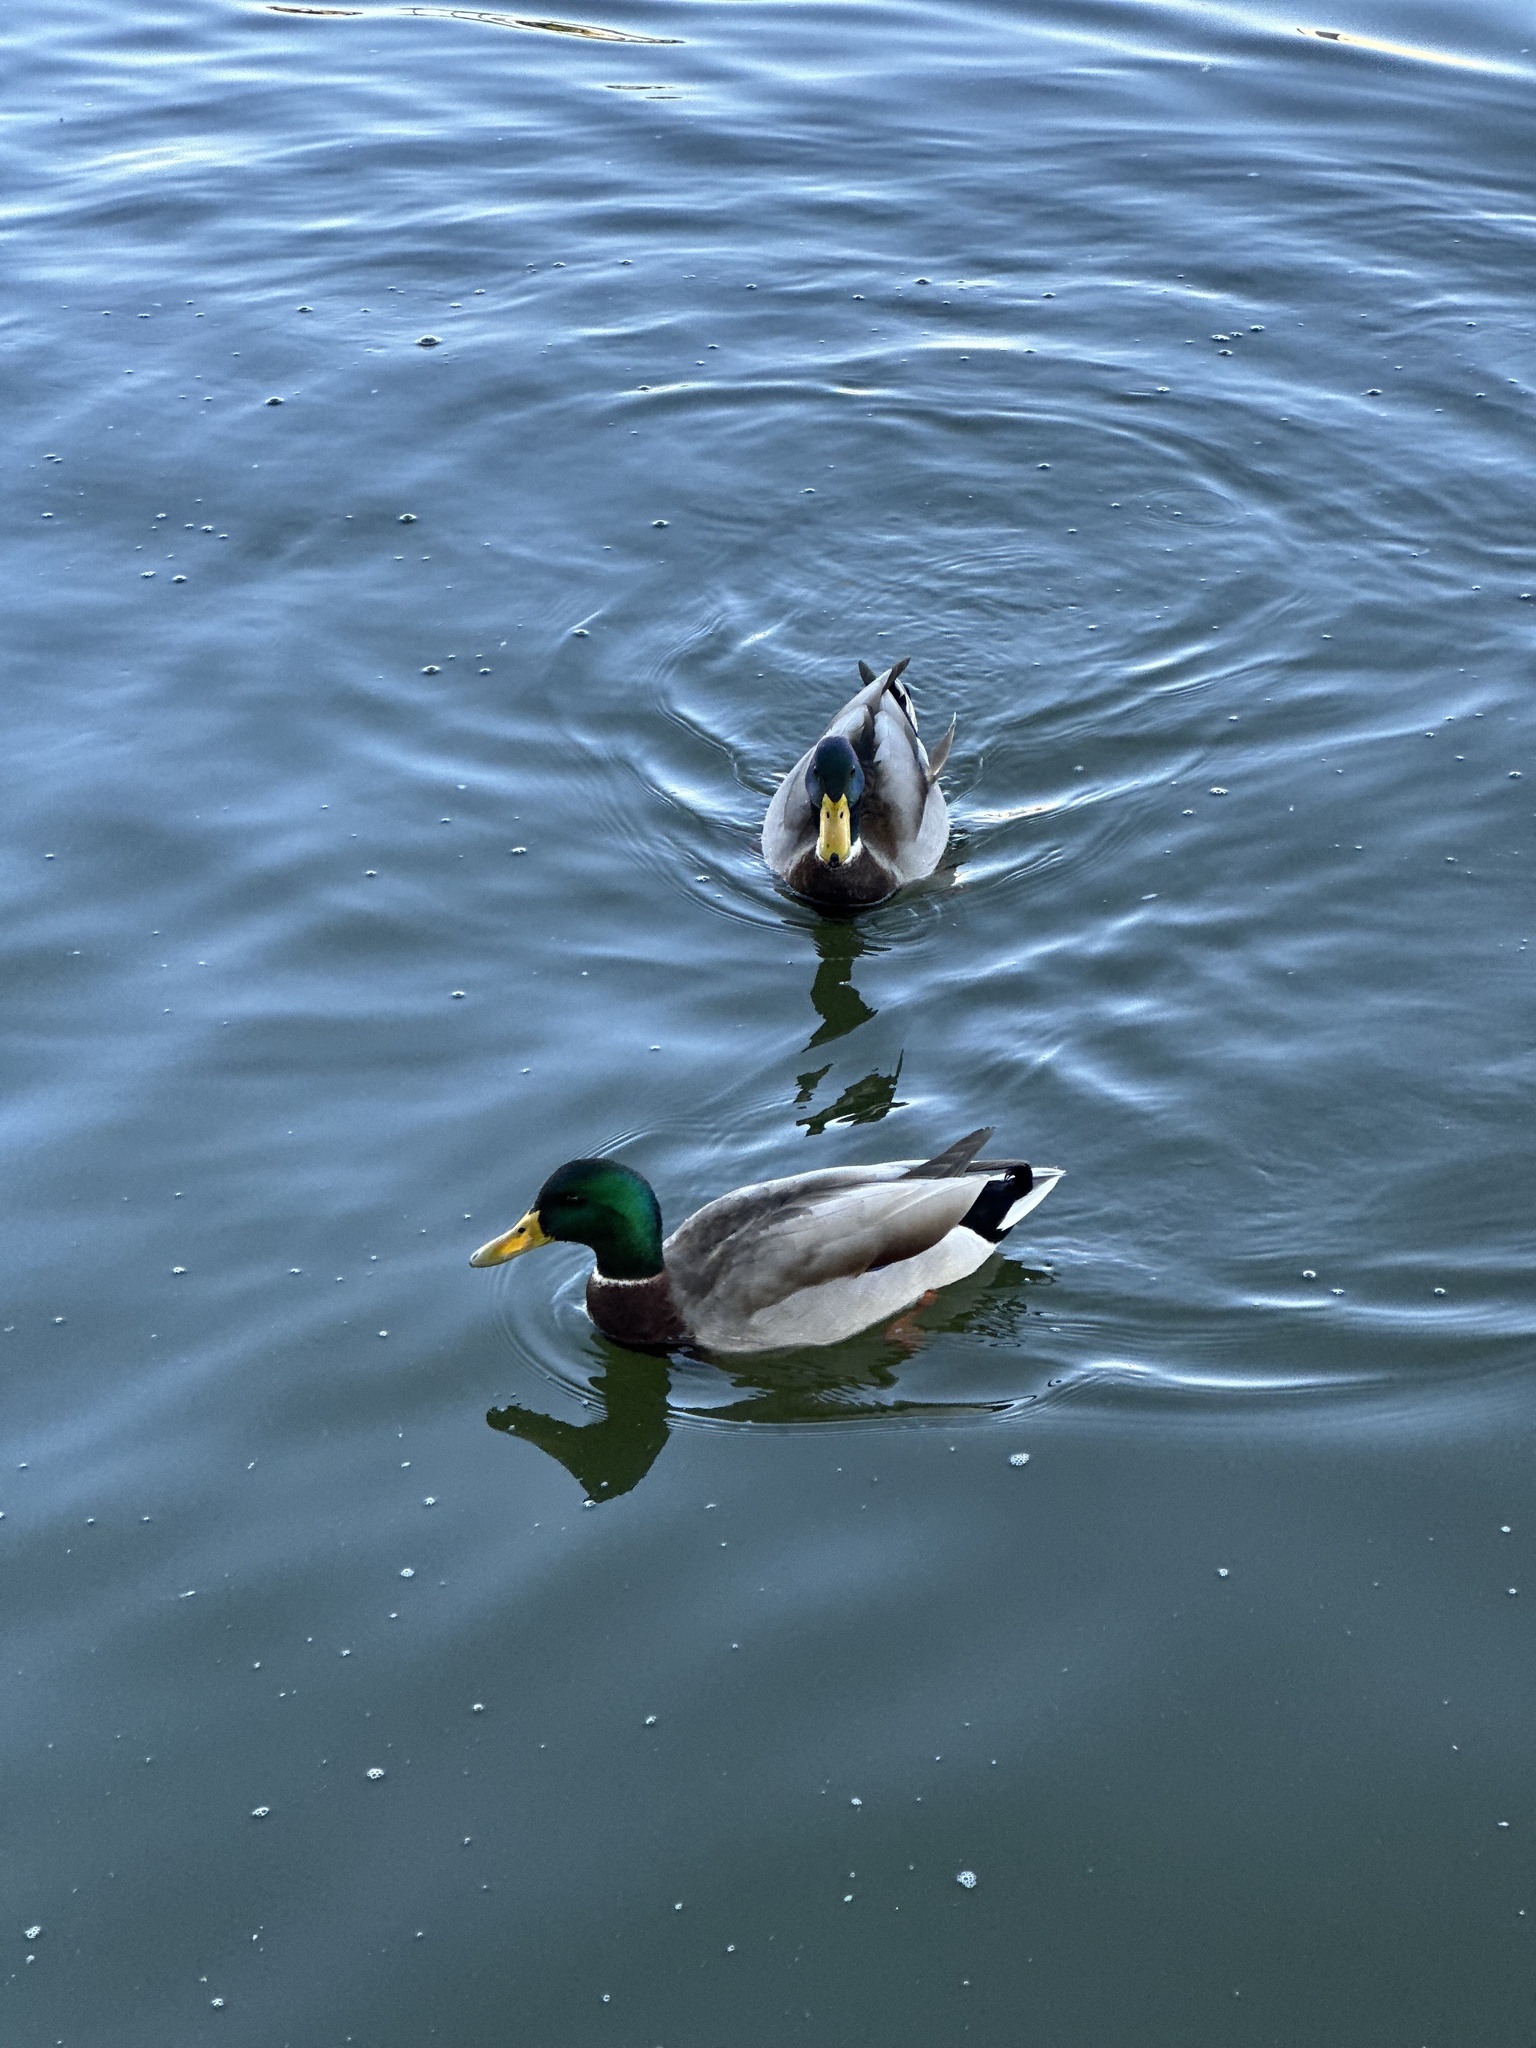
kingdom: Animalia
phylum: Chordata
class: Aves
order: Anseriformes
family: Anatidae
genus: Anas
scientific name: Anas platyrhynchos
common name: Mallard
